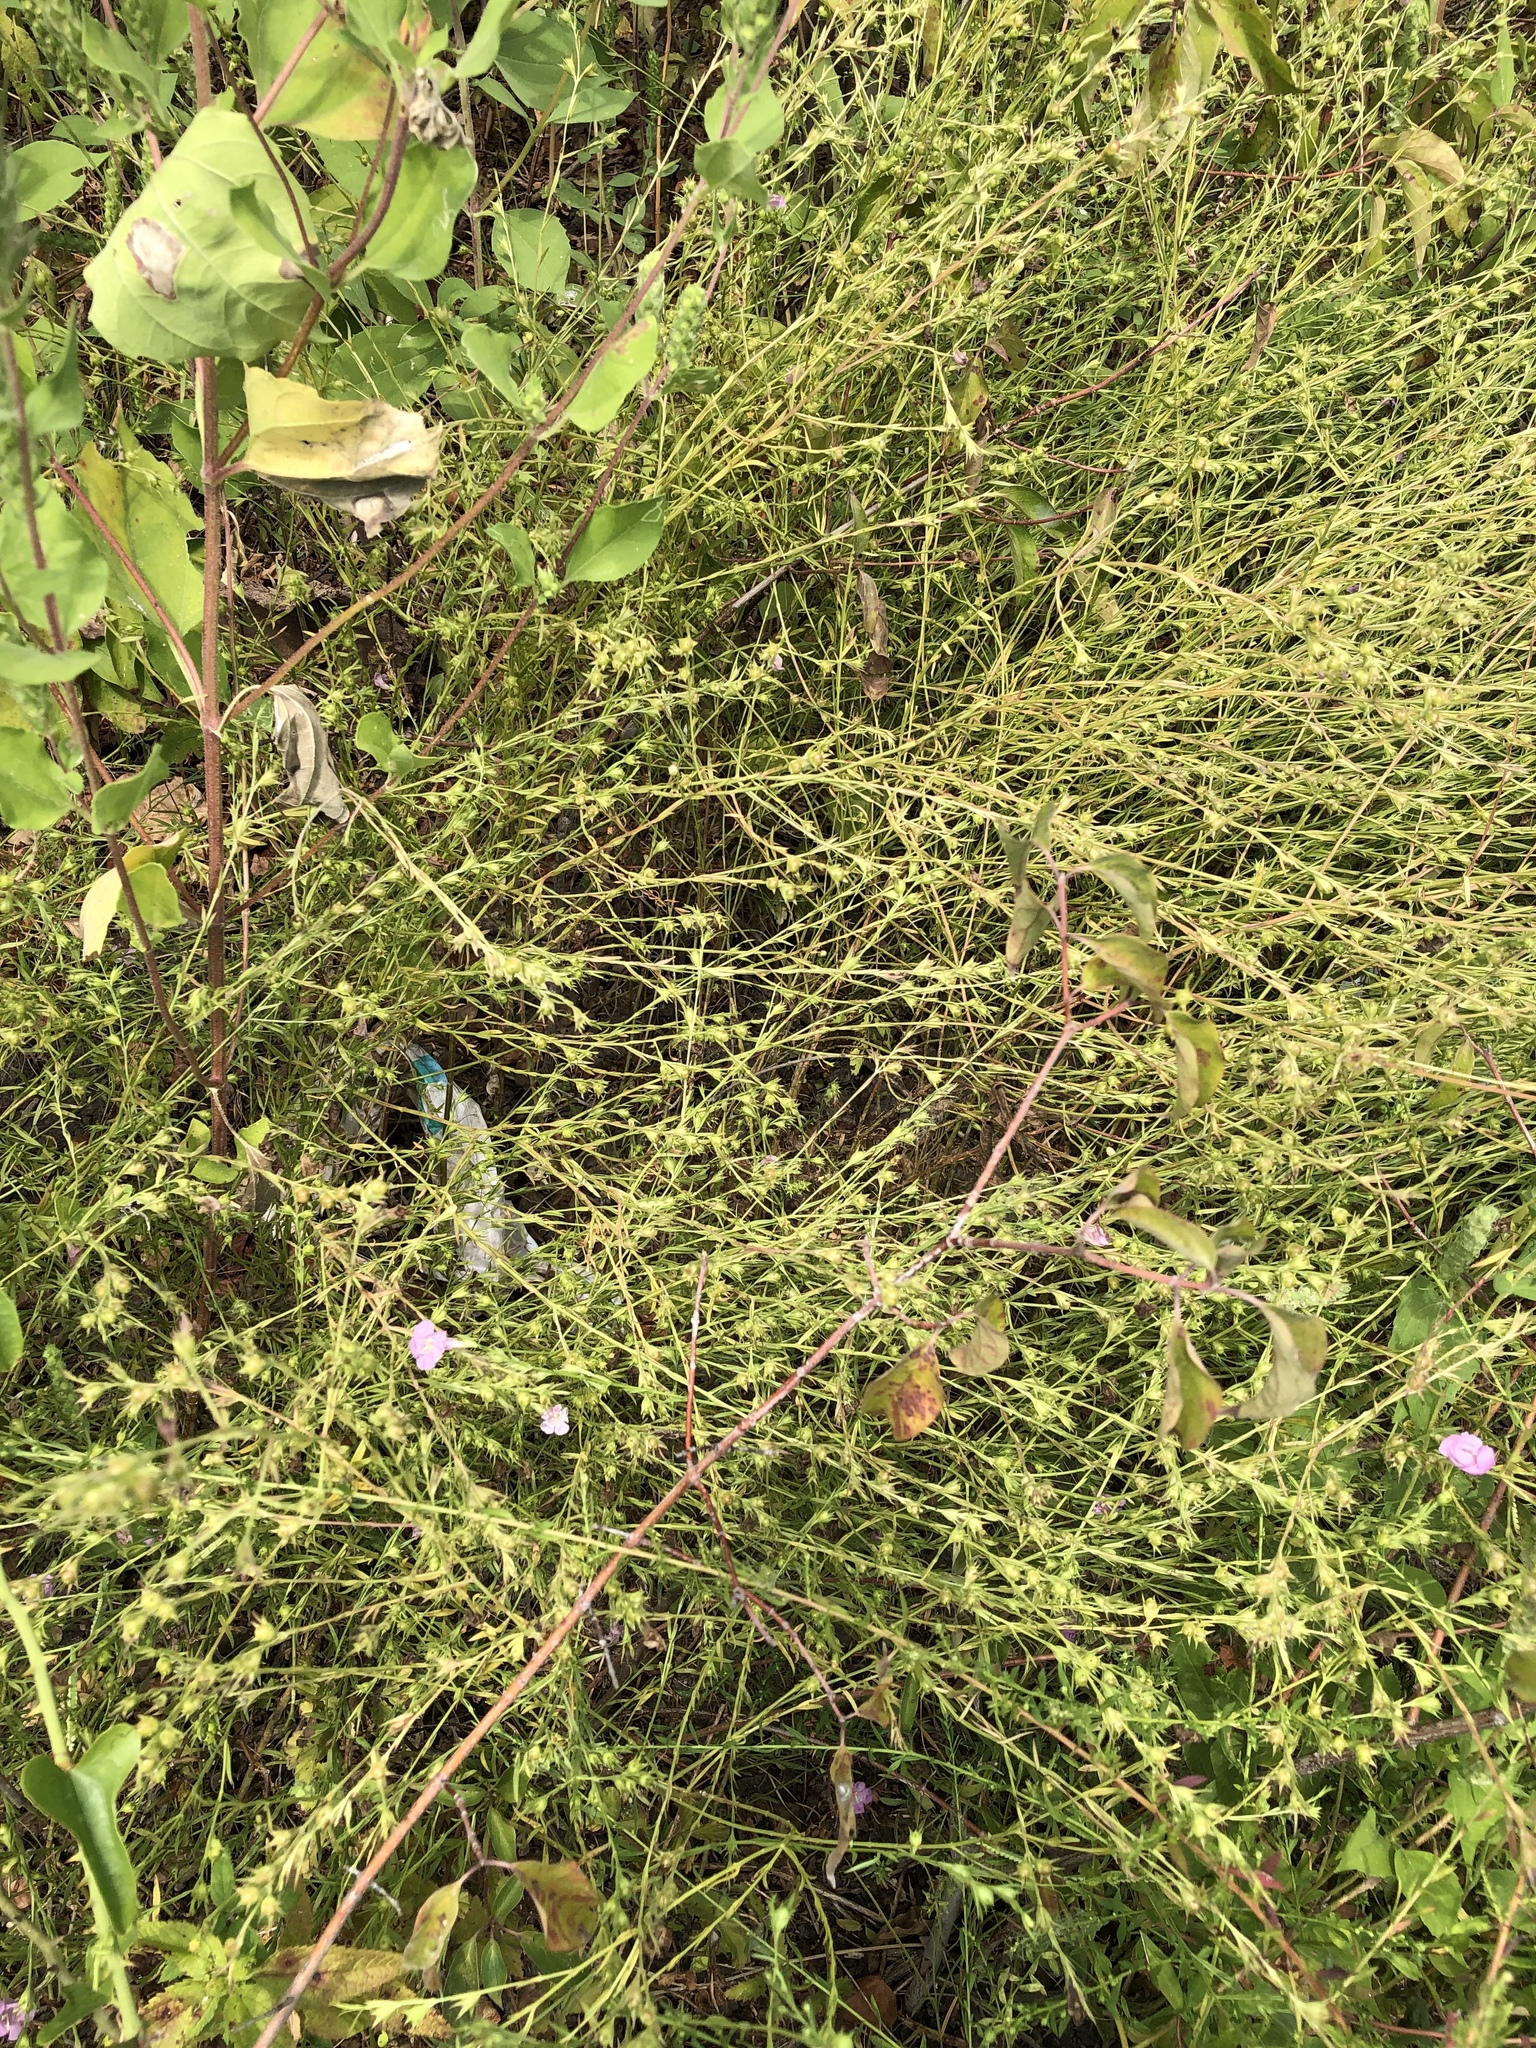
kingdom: Plantae
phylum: Tracheophyta
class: Magnoliopsida
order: Lamiales
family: Orobanchaceae
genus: Agalinis
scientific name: Agalinis heterophylla
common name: Prairie agalinis
